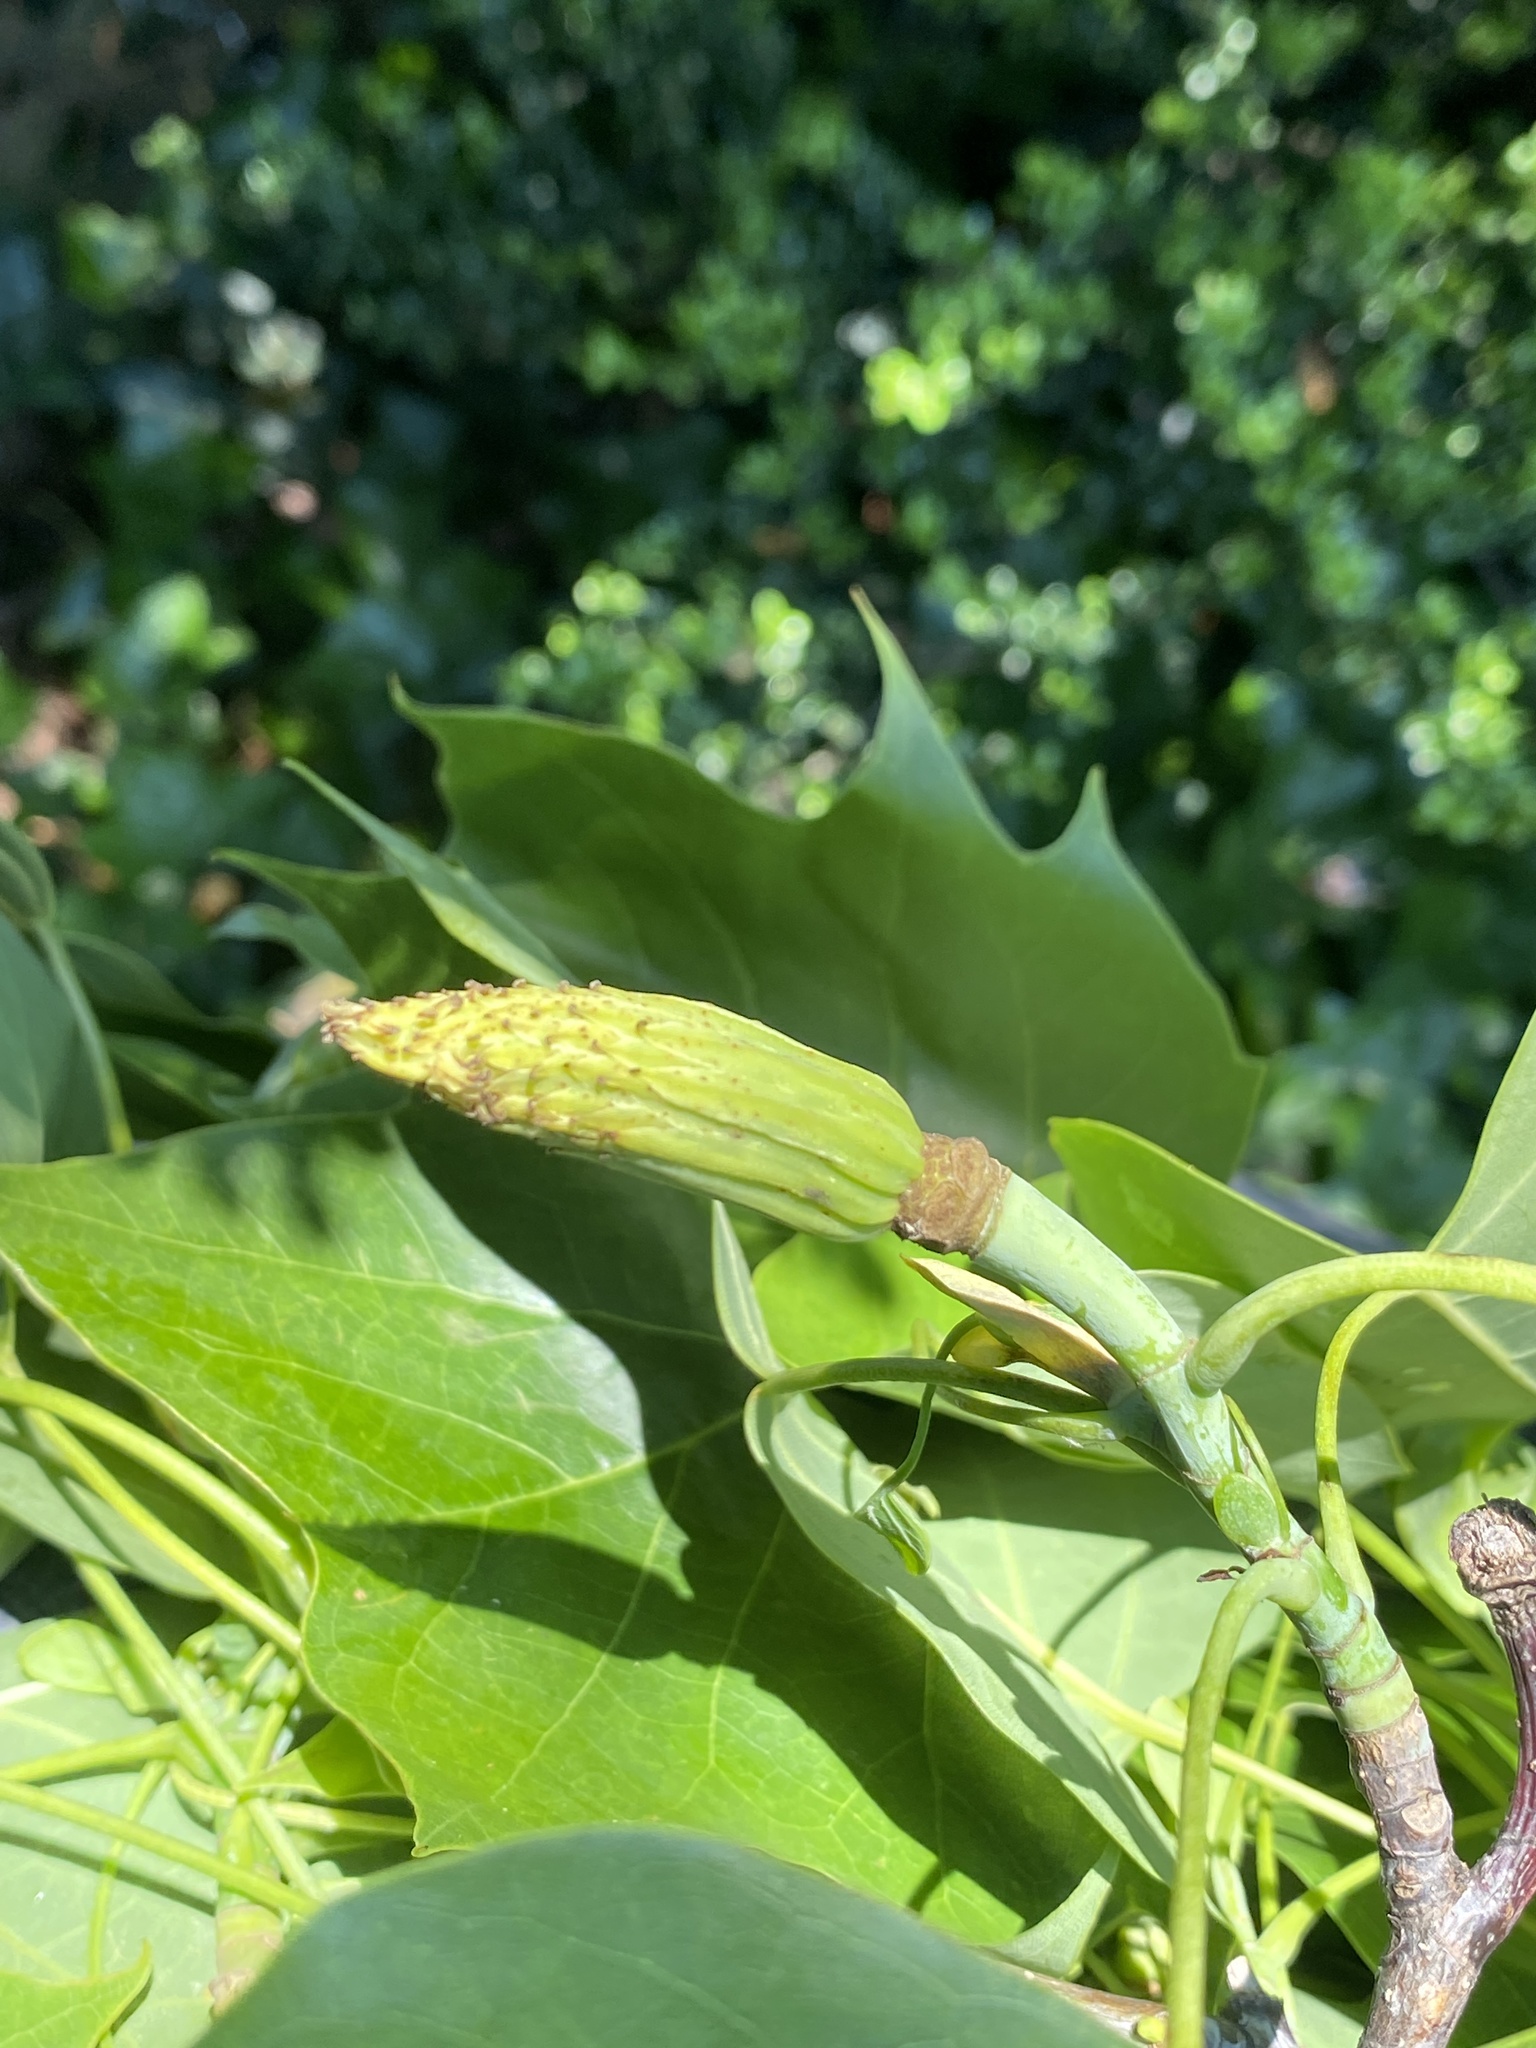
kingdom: Plantae
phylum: Tracheophyta
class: Magnoliopsida
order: Magnoliales
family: Magnoliaceae
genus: Liriodendron
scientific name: Liriodendron tulipifera
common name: Tulip tree
